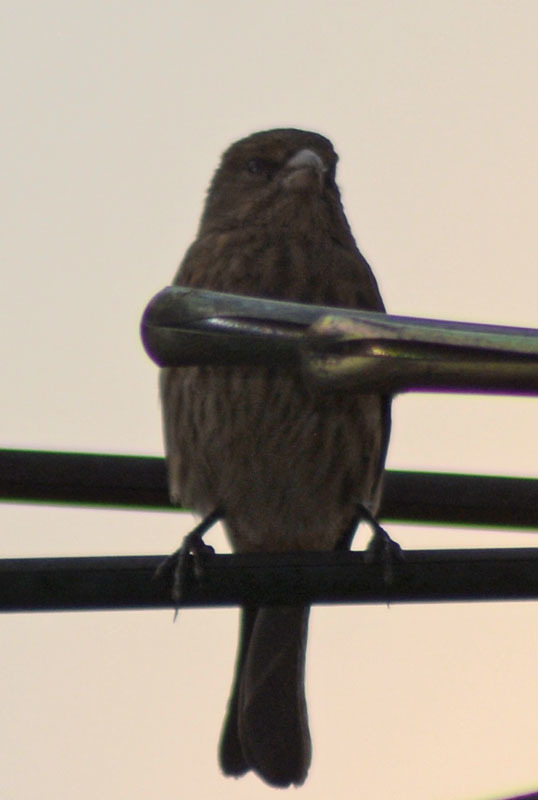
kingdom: Animalia
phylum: Chordata
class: Aves
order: Passeriformes
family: Fringillidae
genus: Haemorhous
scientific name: Haemorhous mexicanus
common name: House finch
